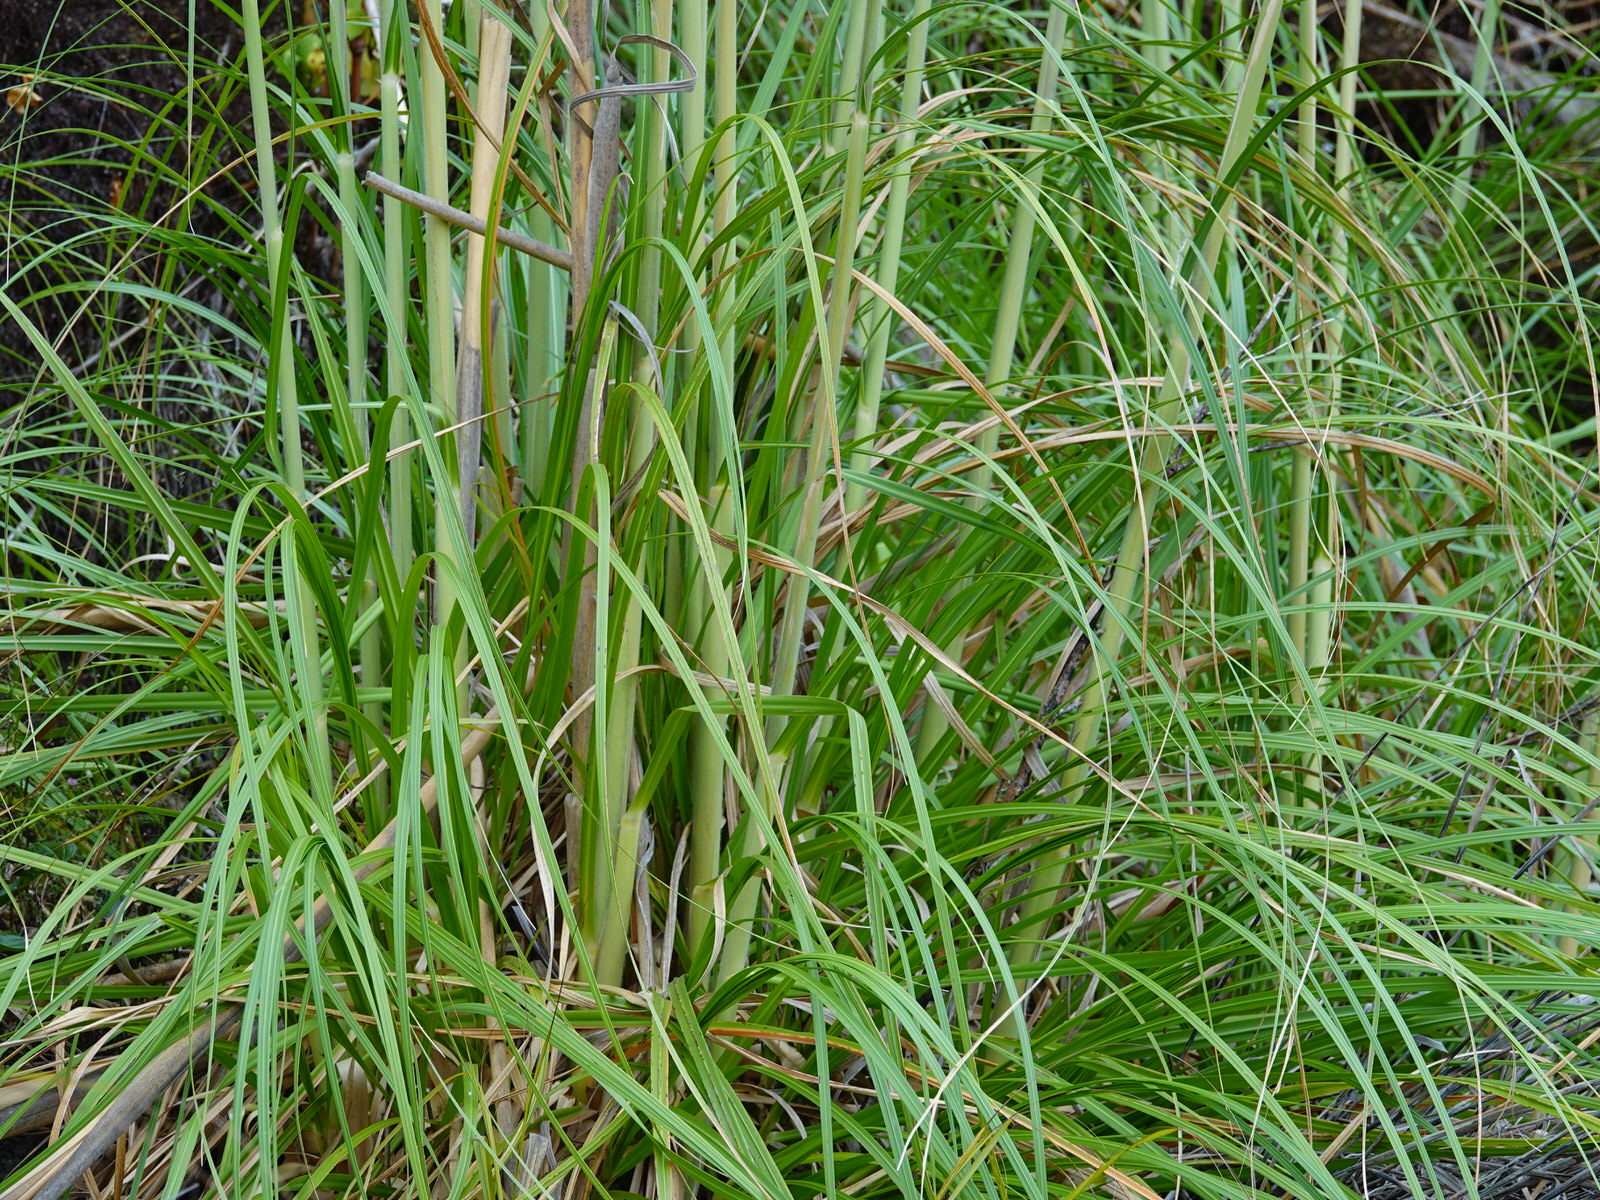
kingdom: Plantae
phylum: Tracheophyta
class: Liliopsida
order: Poales
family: Poaceae
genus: Cortaderia
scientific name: Cortaderia jubata
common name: Purple pampas grass
